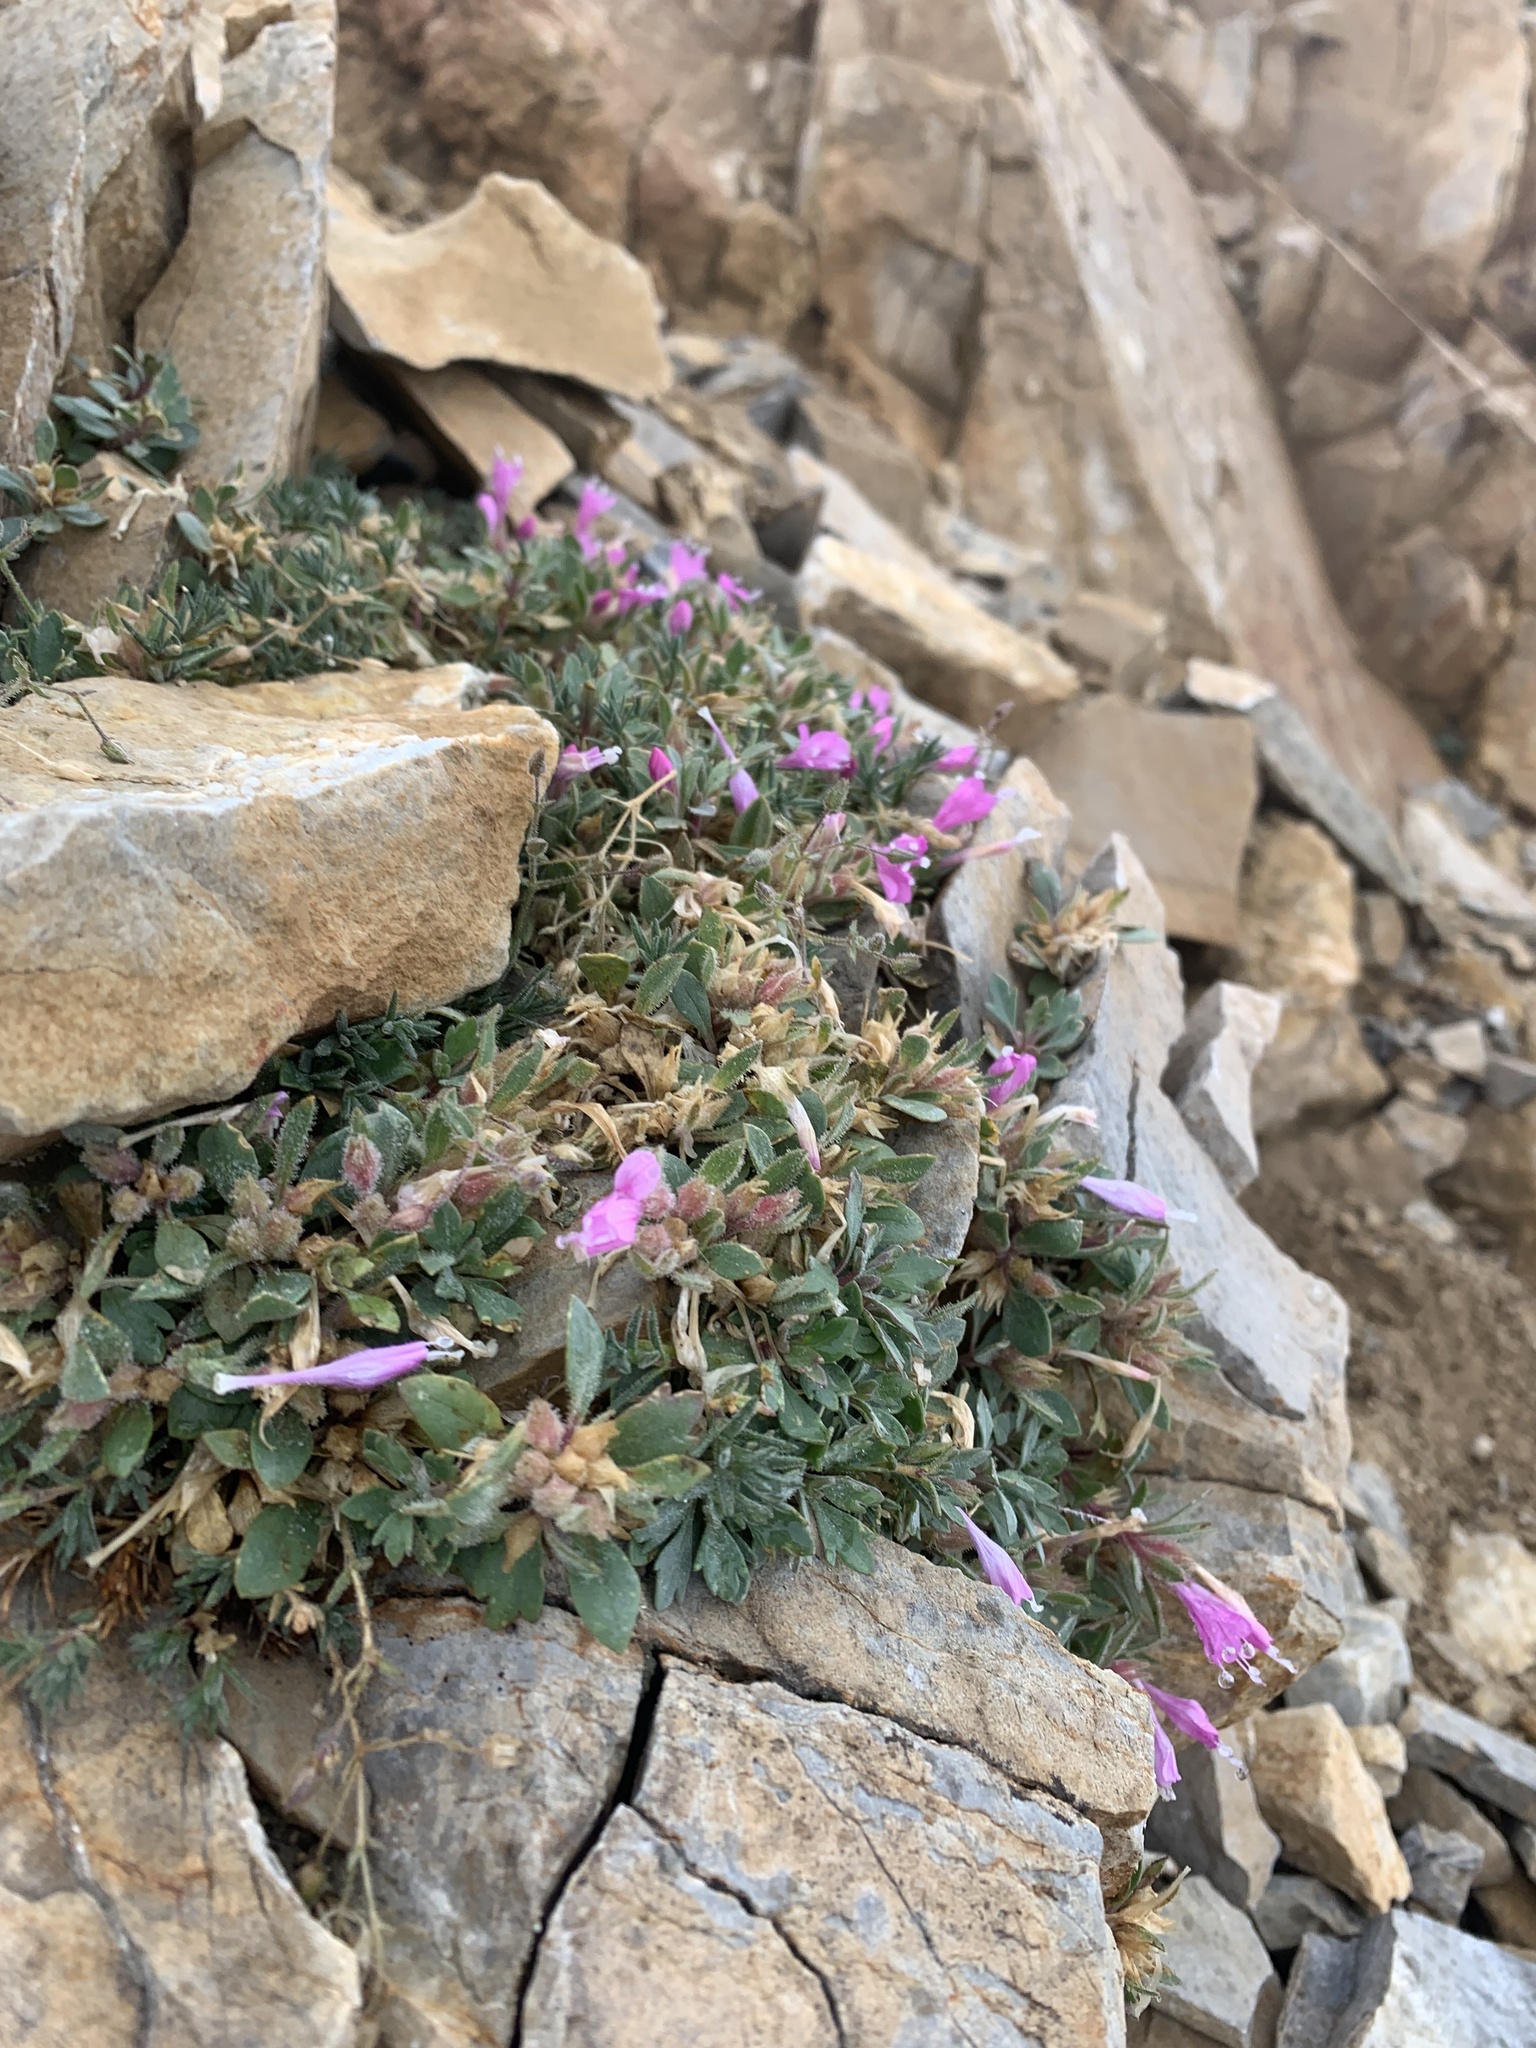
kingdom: Plantae
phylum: Tracheophyta
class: Magnoliopsida
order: Ericales
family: Polemoniaceae
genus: Collomia
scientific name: Collomia debilis
